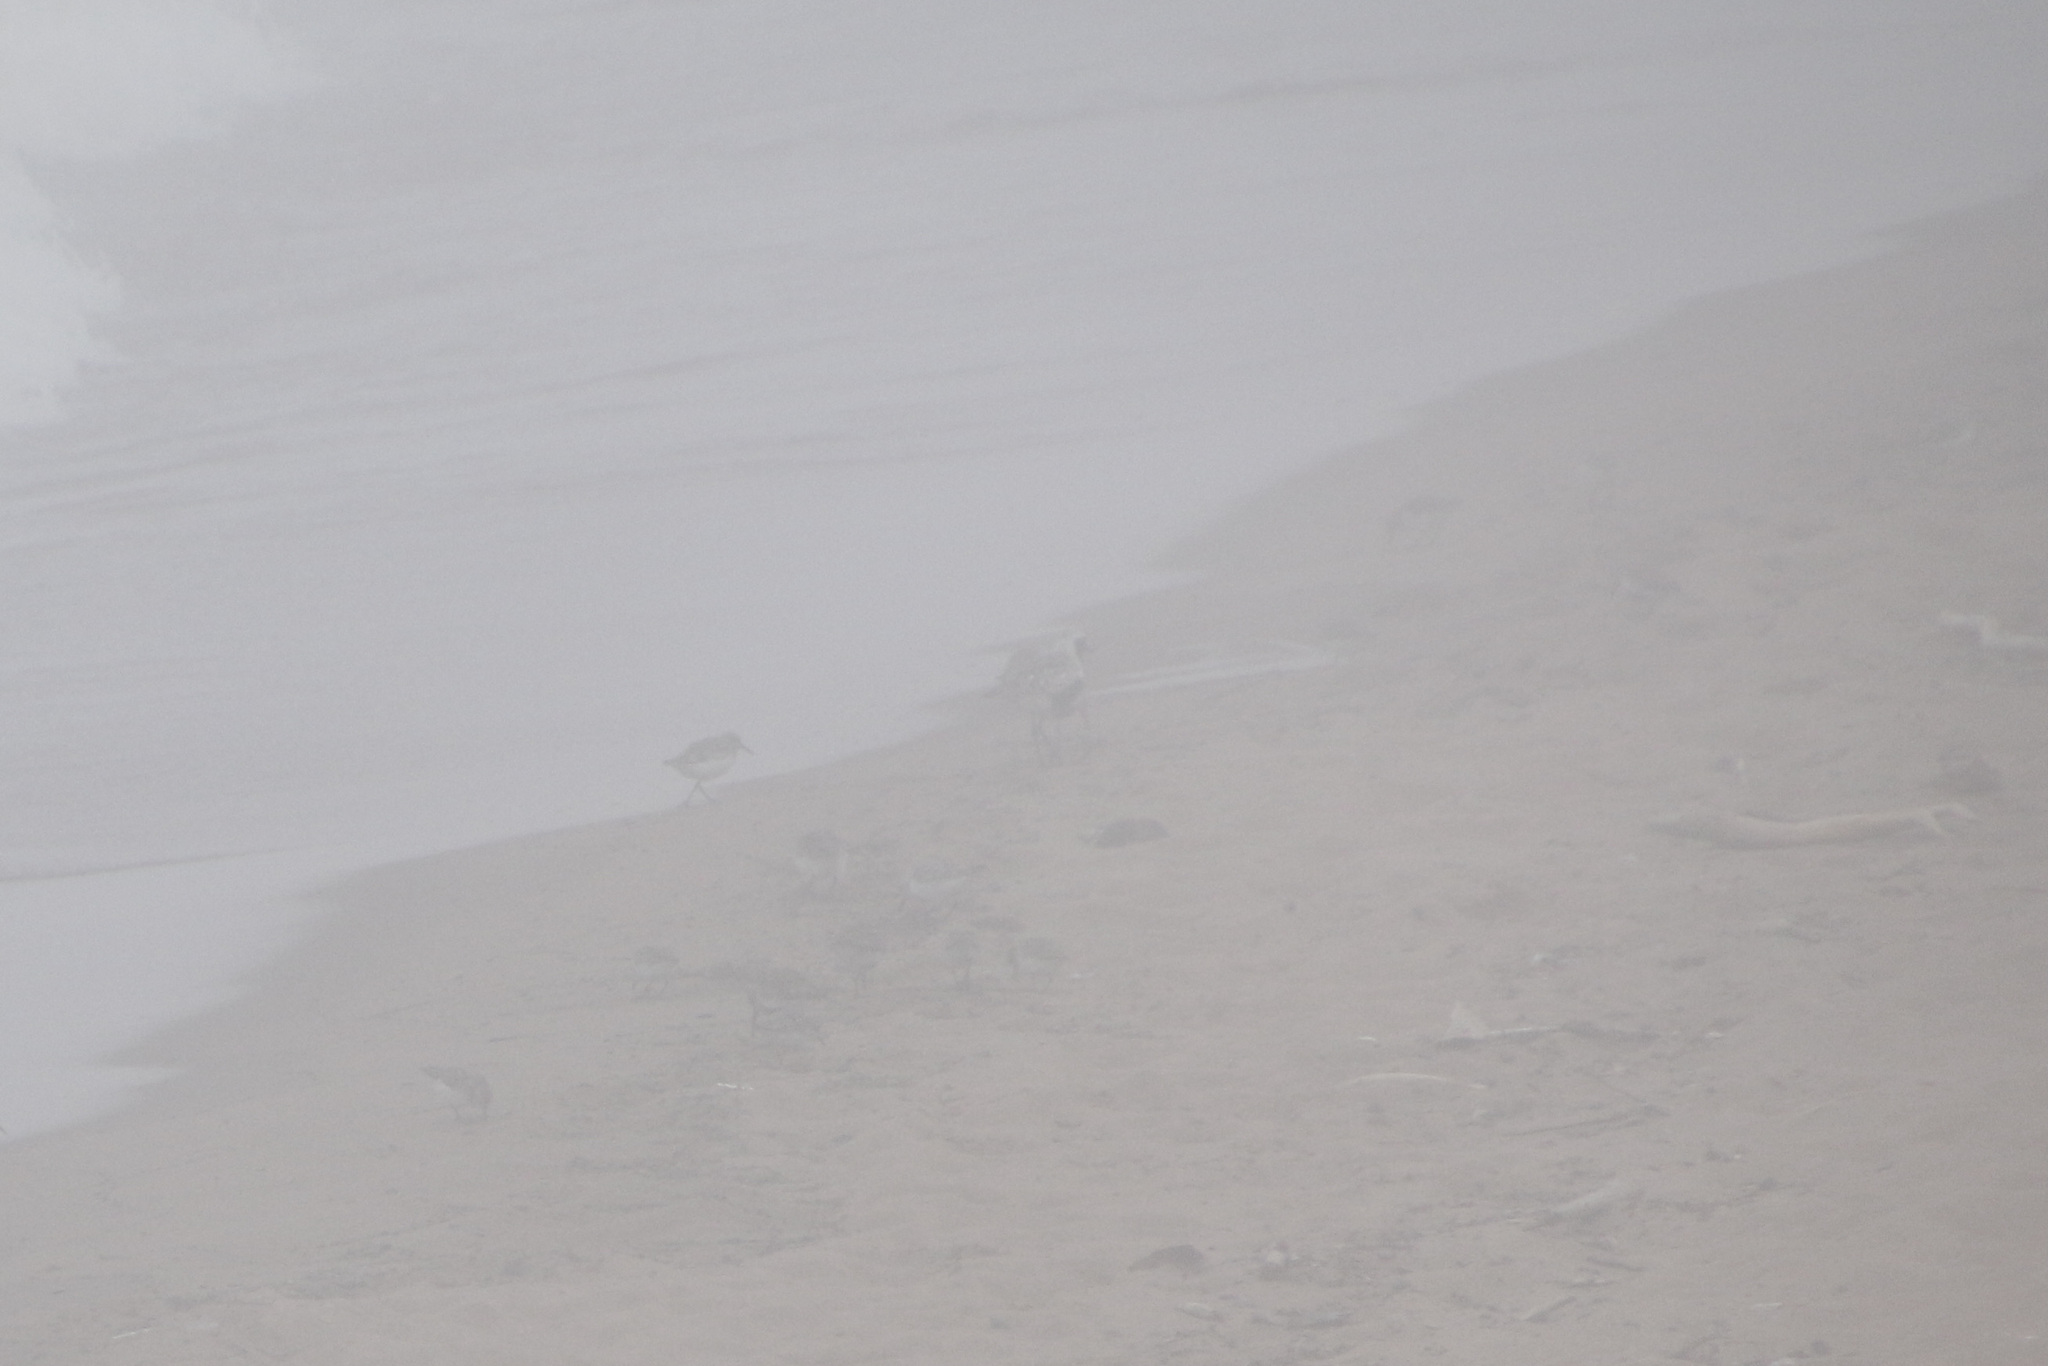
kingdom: Animalia
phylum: Chordata
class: Aves
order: Charadriiformes
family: Charadriidae
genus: Pluvialis
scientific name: Pluvialis squatarola
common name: Grey plover
